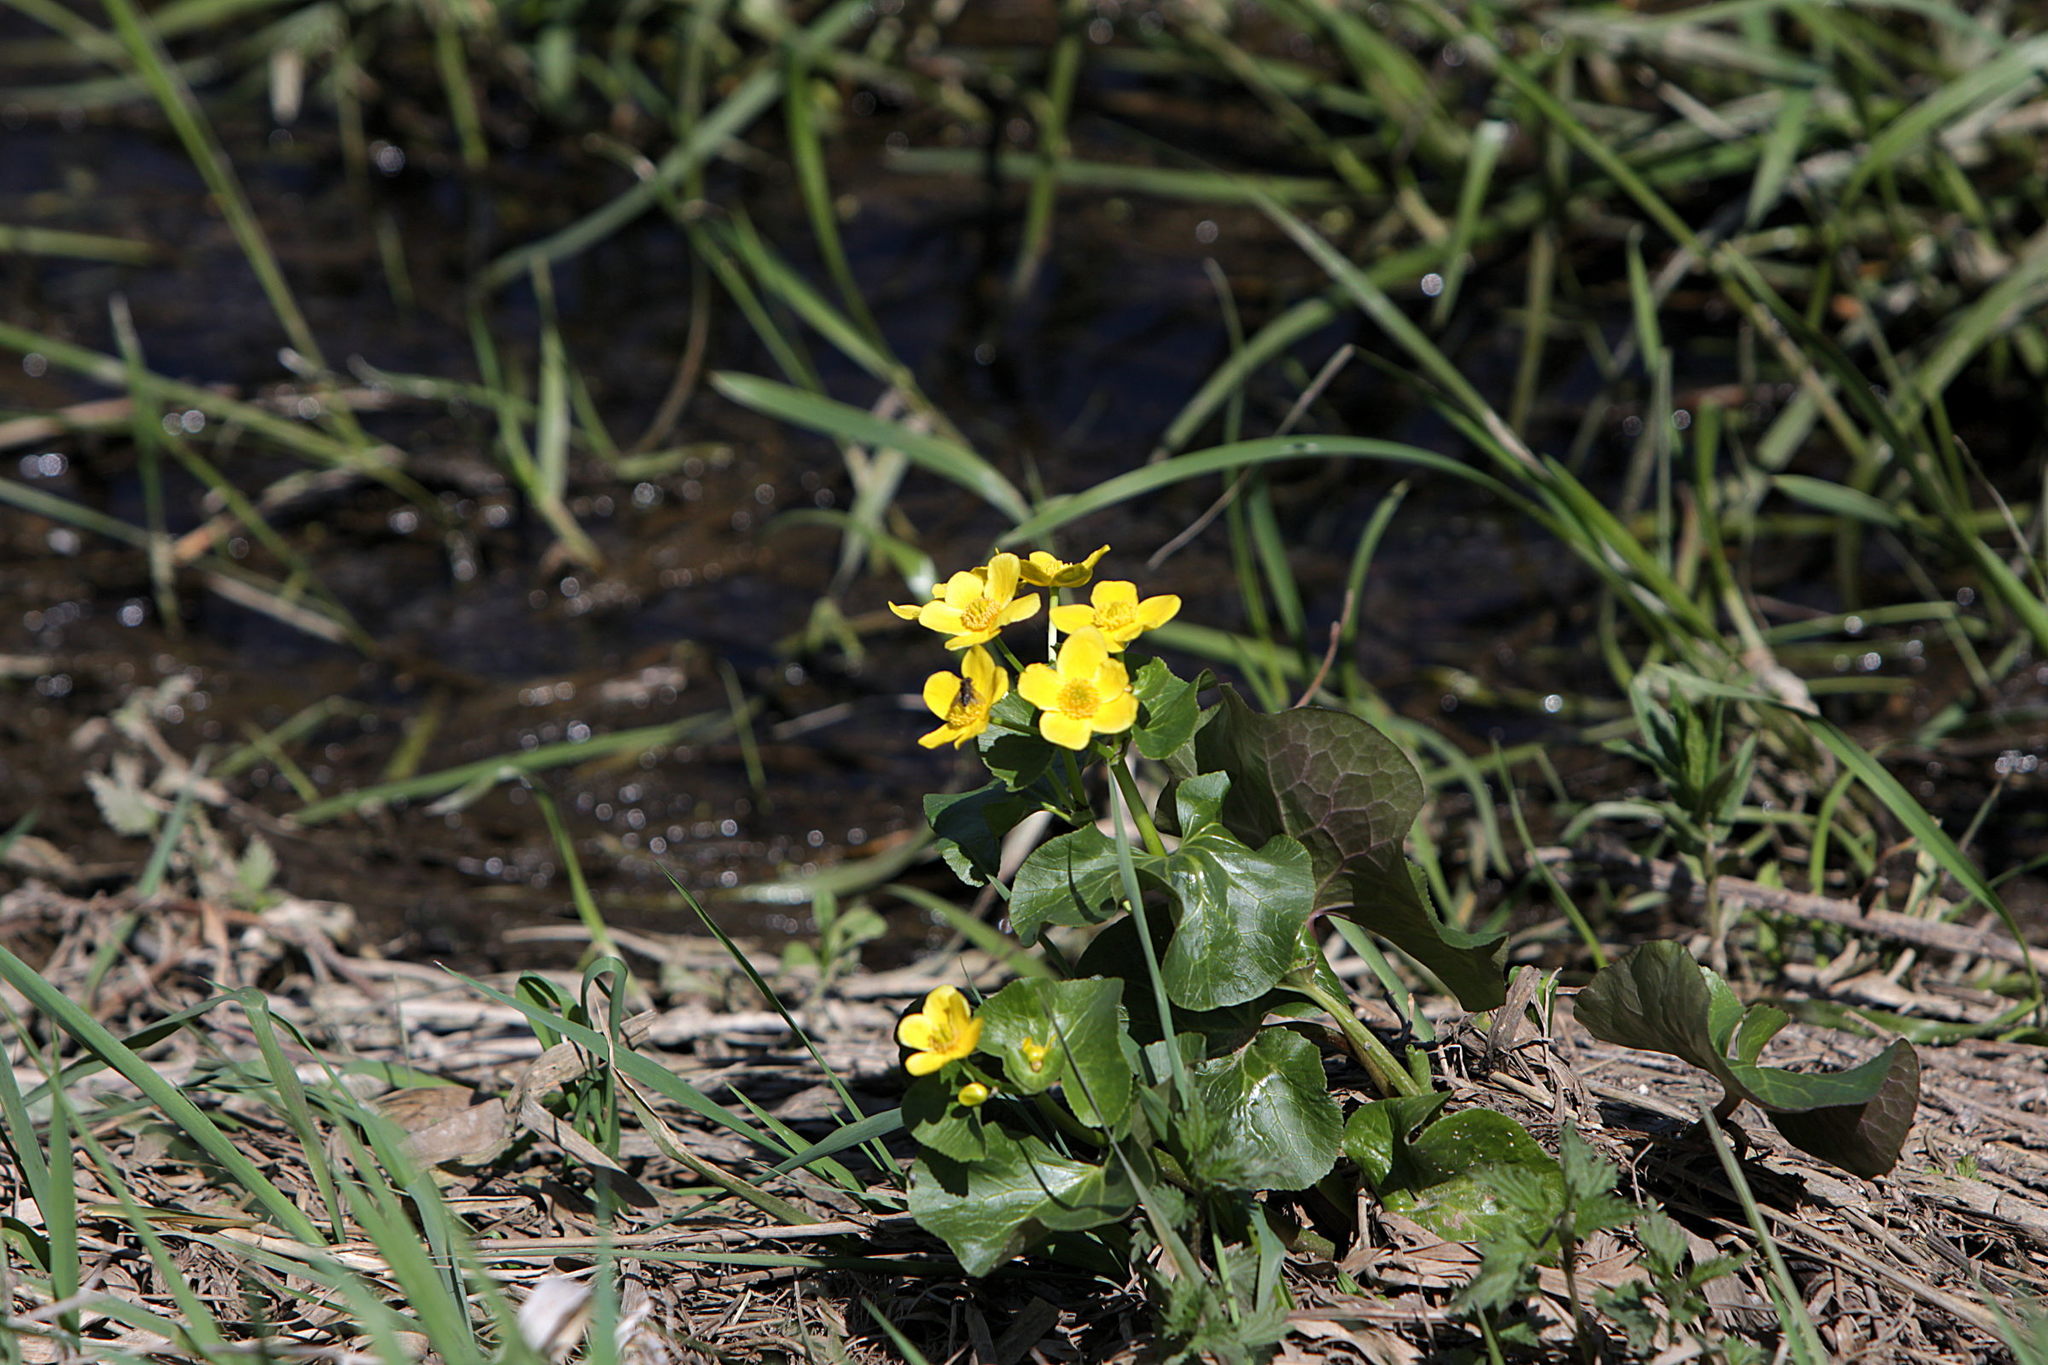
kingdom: Plantae
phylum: Tracheophyta
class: Magnoliopsida
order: Ranunculales
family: Ranunculaceae
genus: Caltha
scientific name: Caltha palustris
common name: Marsh marigold
